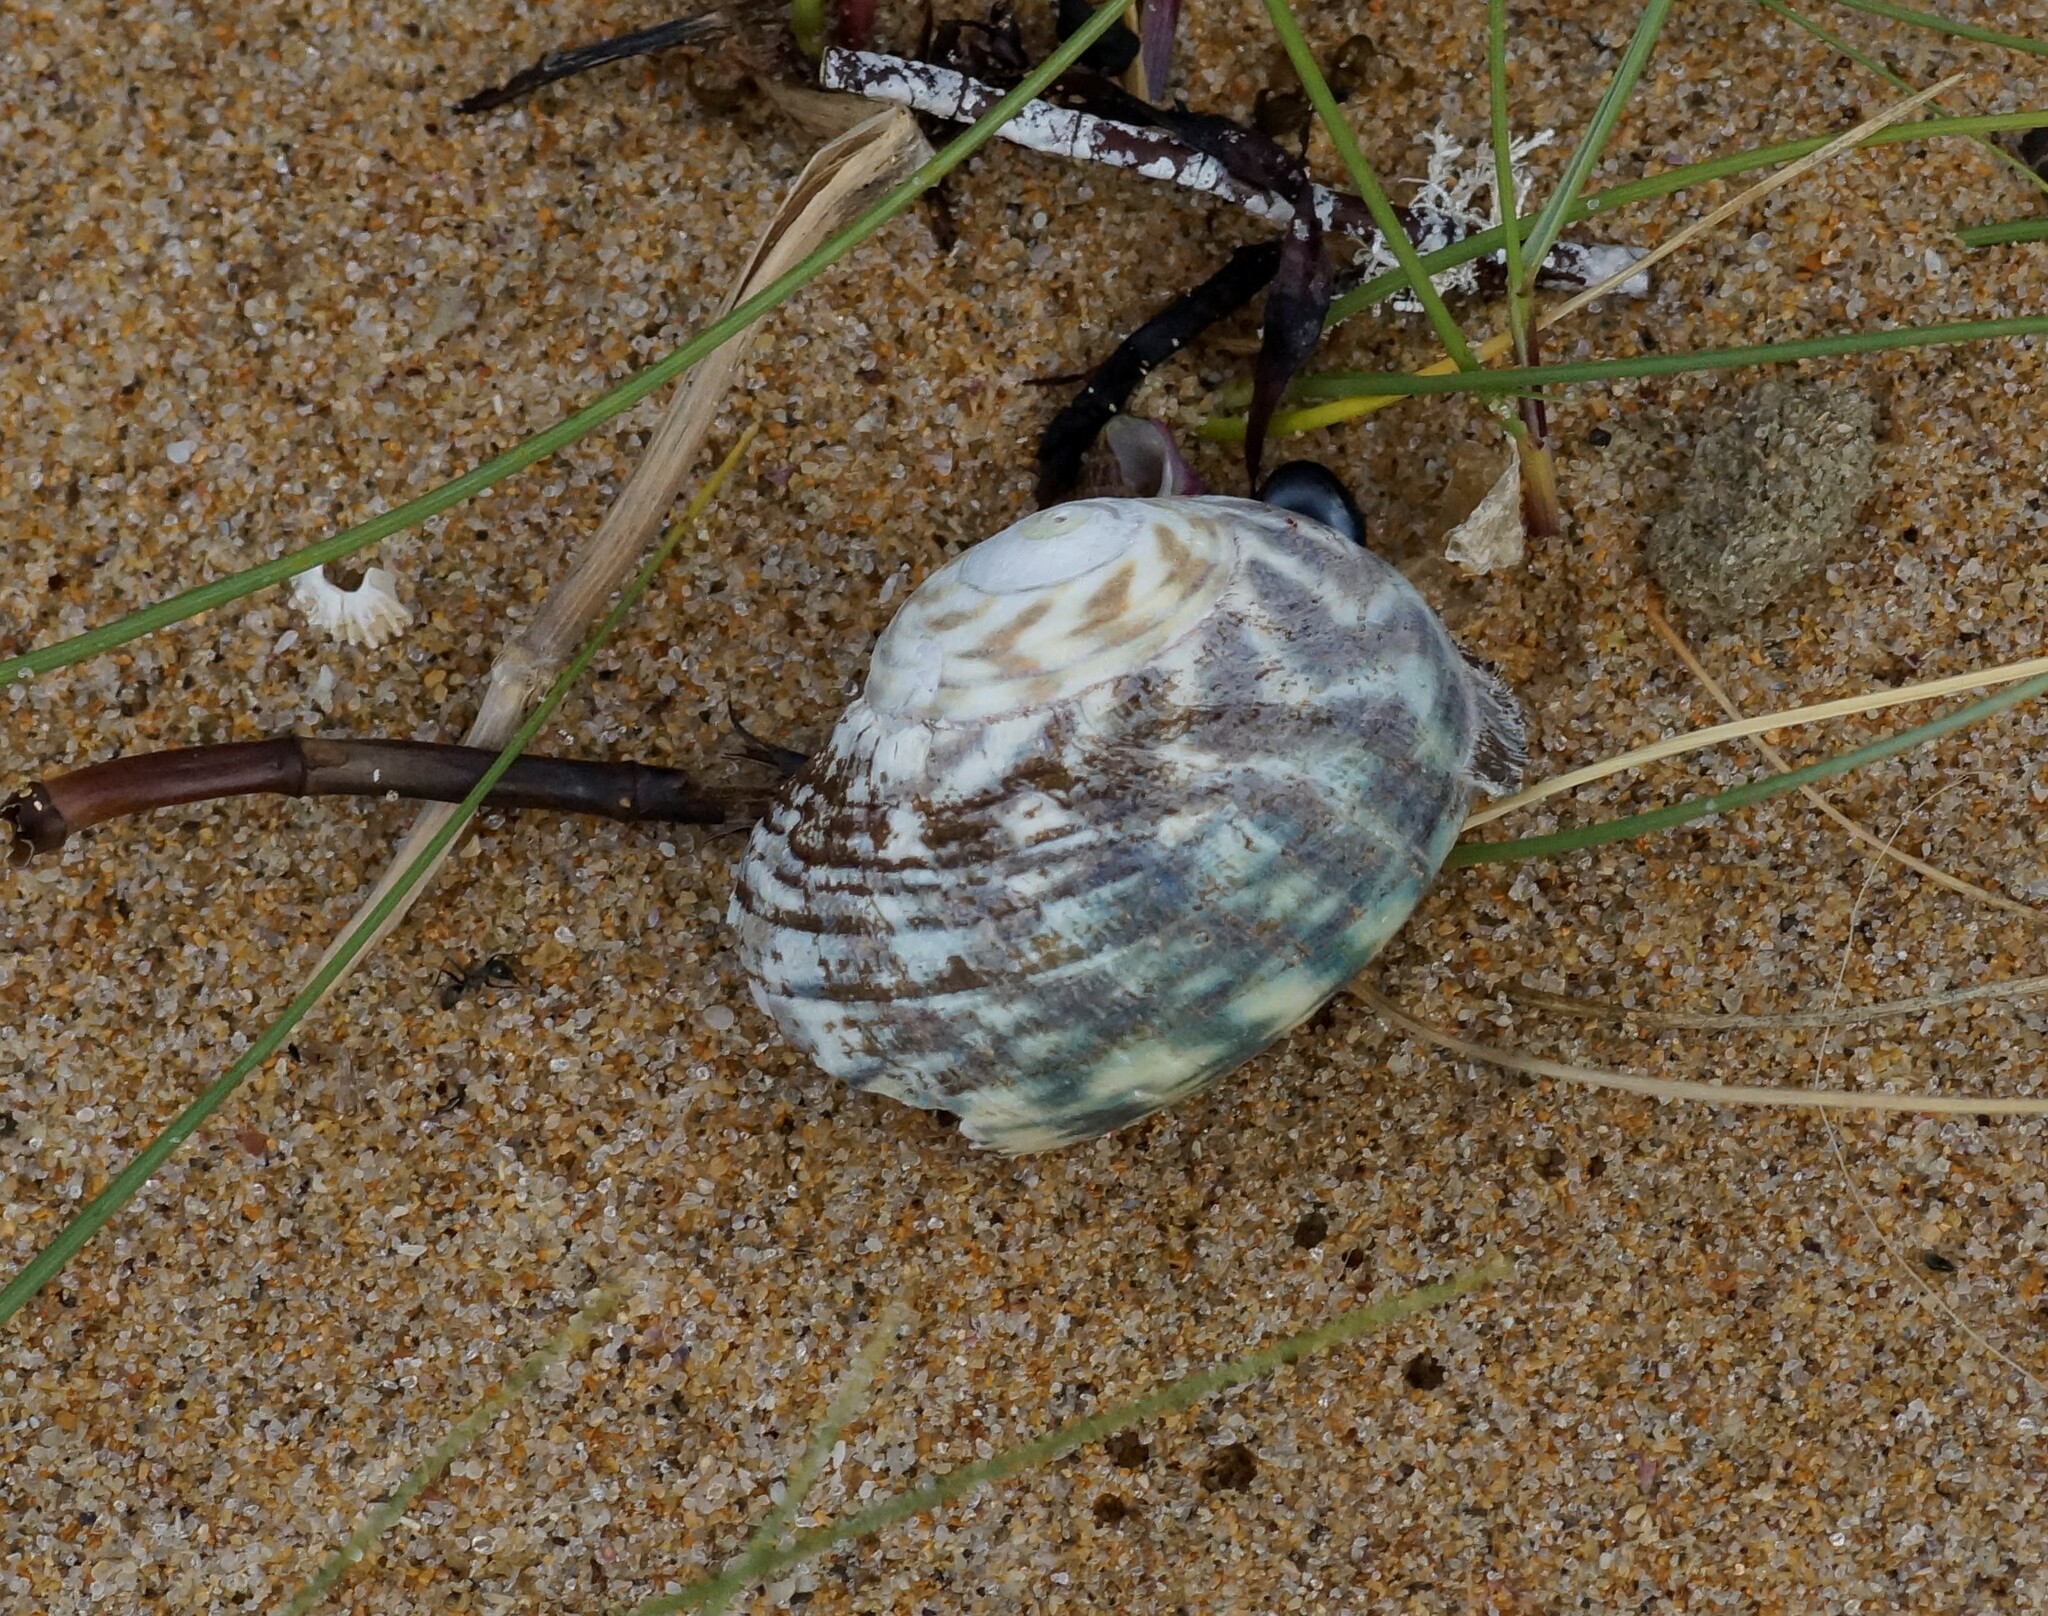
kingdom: Animalia
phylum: Mollusca
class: Gastropoda
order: Trochida
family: Turbinidae
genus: Lunella
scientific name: Lunella undulata
